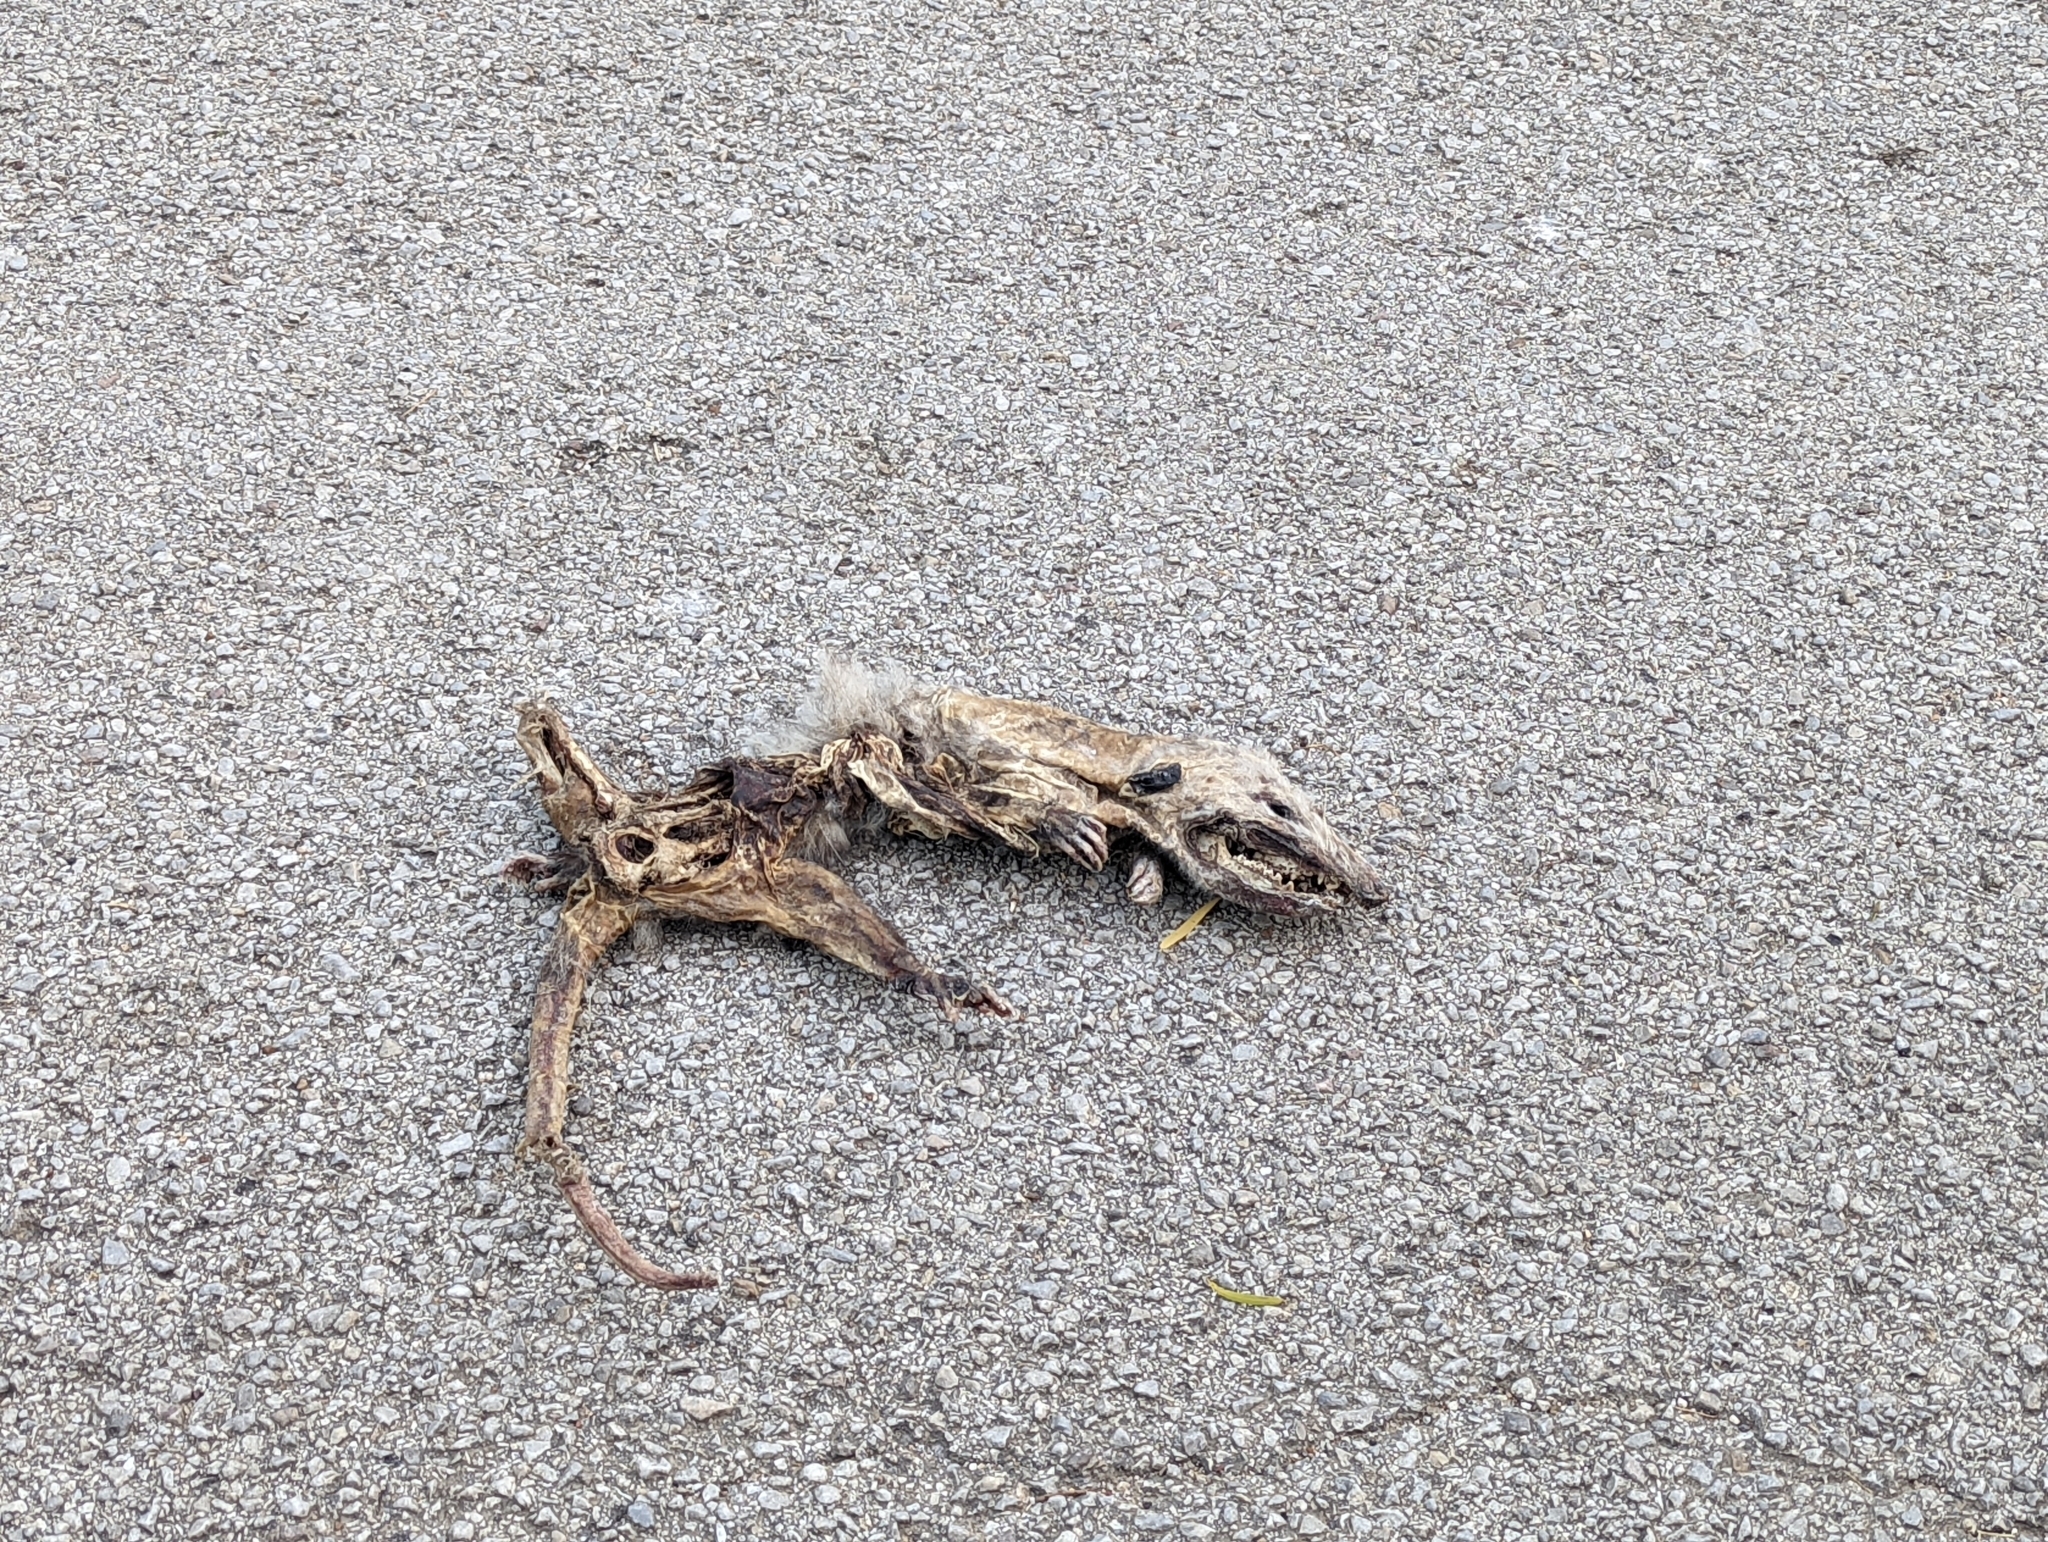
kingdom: Animalia
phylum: Chordata
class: Mammalia
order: Didelphimorphia
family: Didelphidae
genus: Didelphis
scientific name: Didelphis virginiana
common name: Virginia opossum
